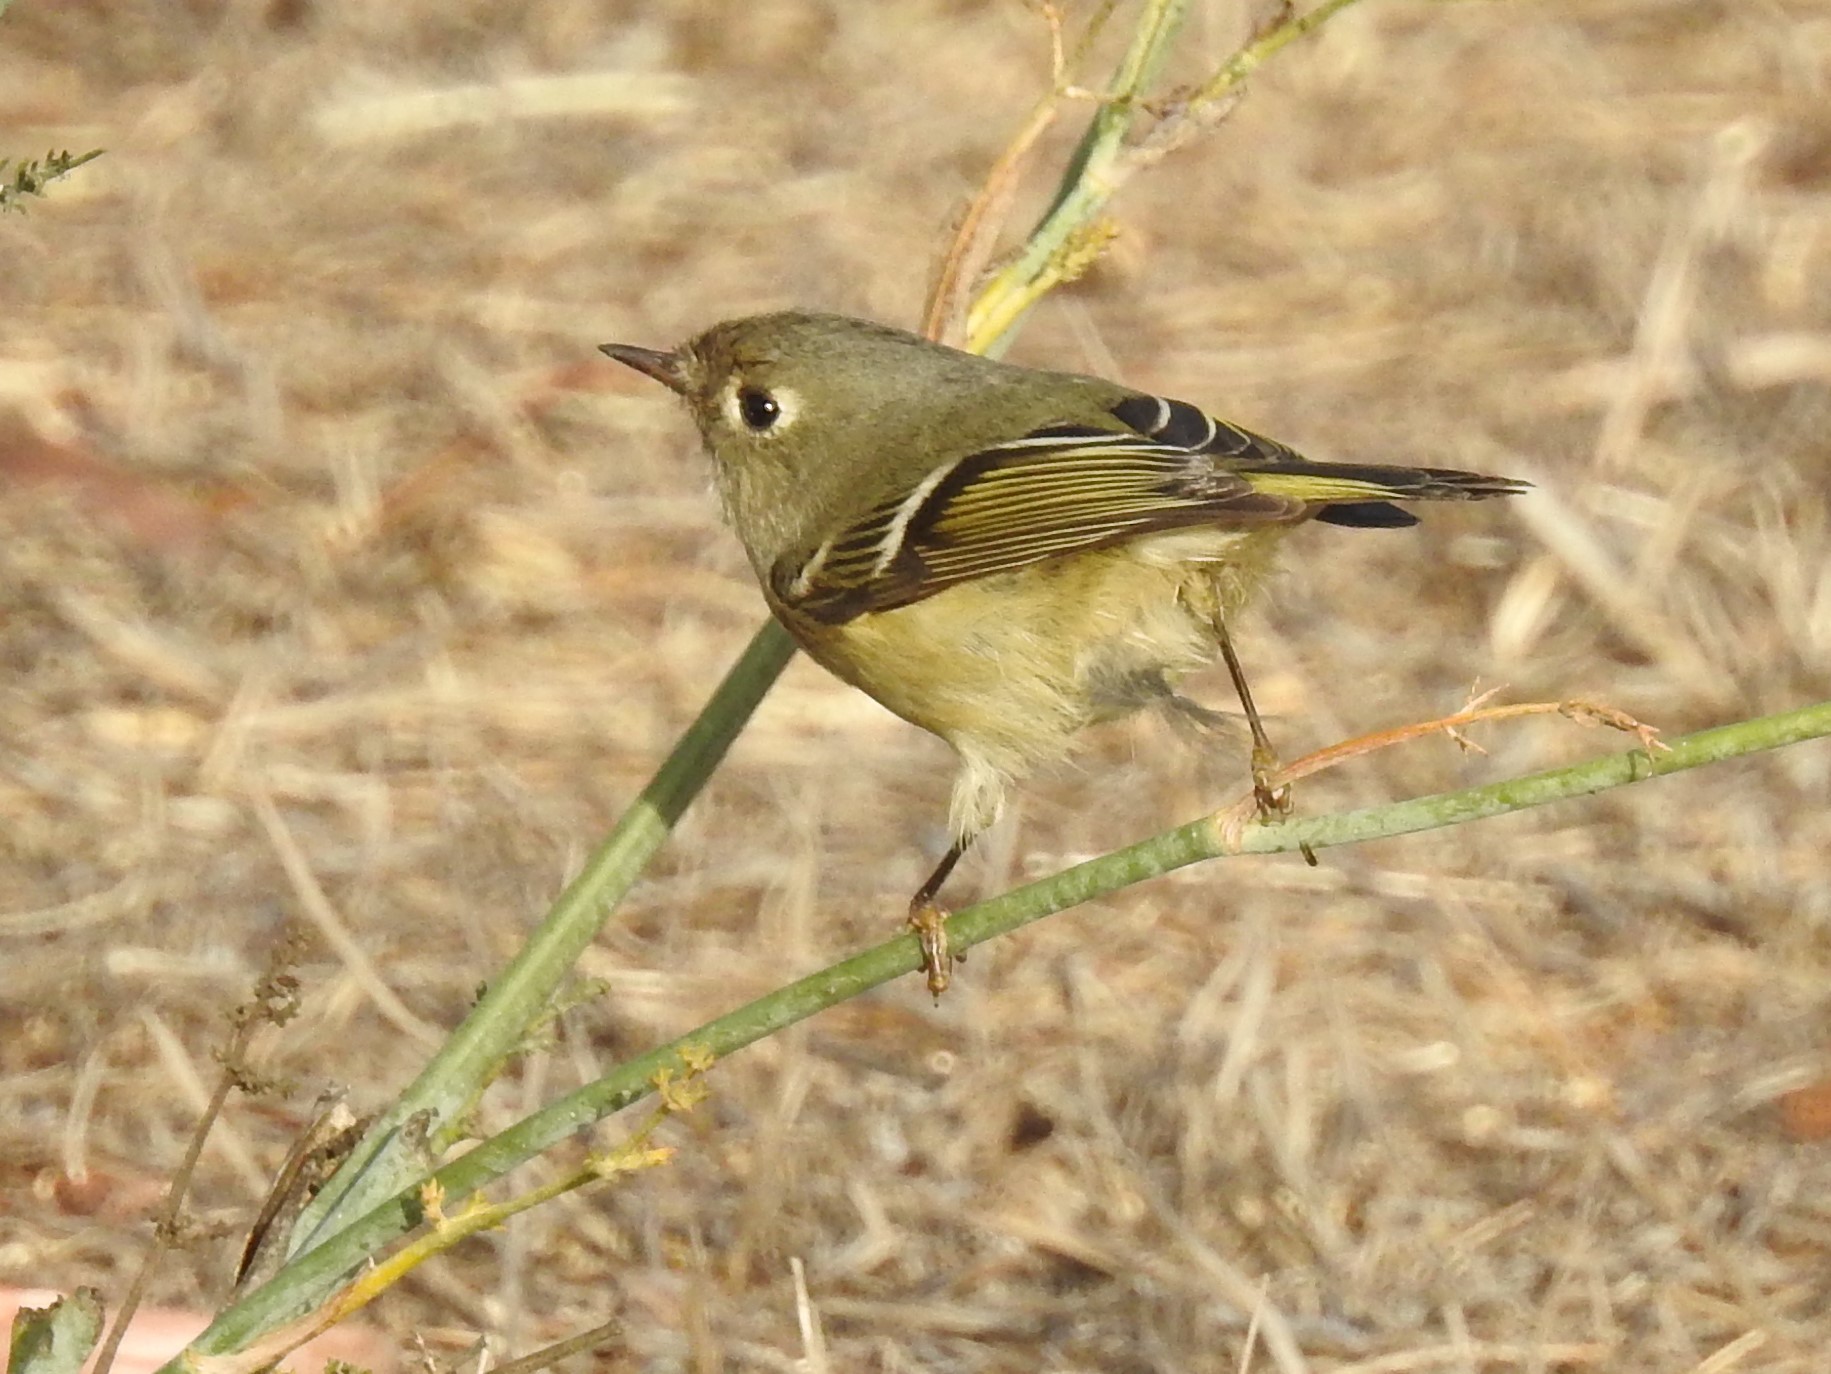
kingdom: Animalia
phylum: Chordata
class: Aves
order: Passeriformes
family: Regulidae
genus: Regulus
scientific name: Regulus calendula
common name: Ruby-crowned kinglet
